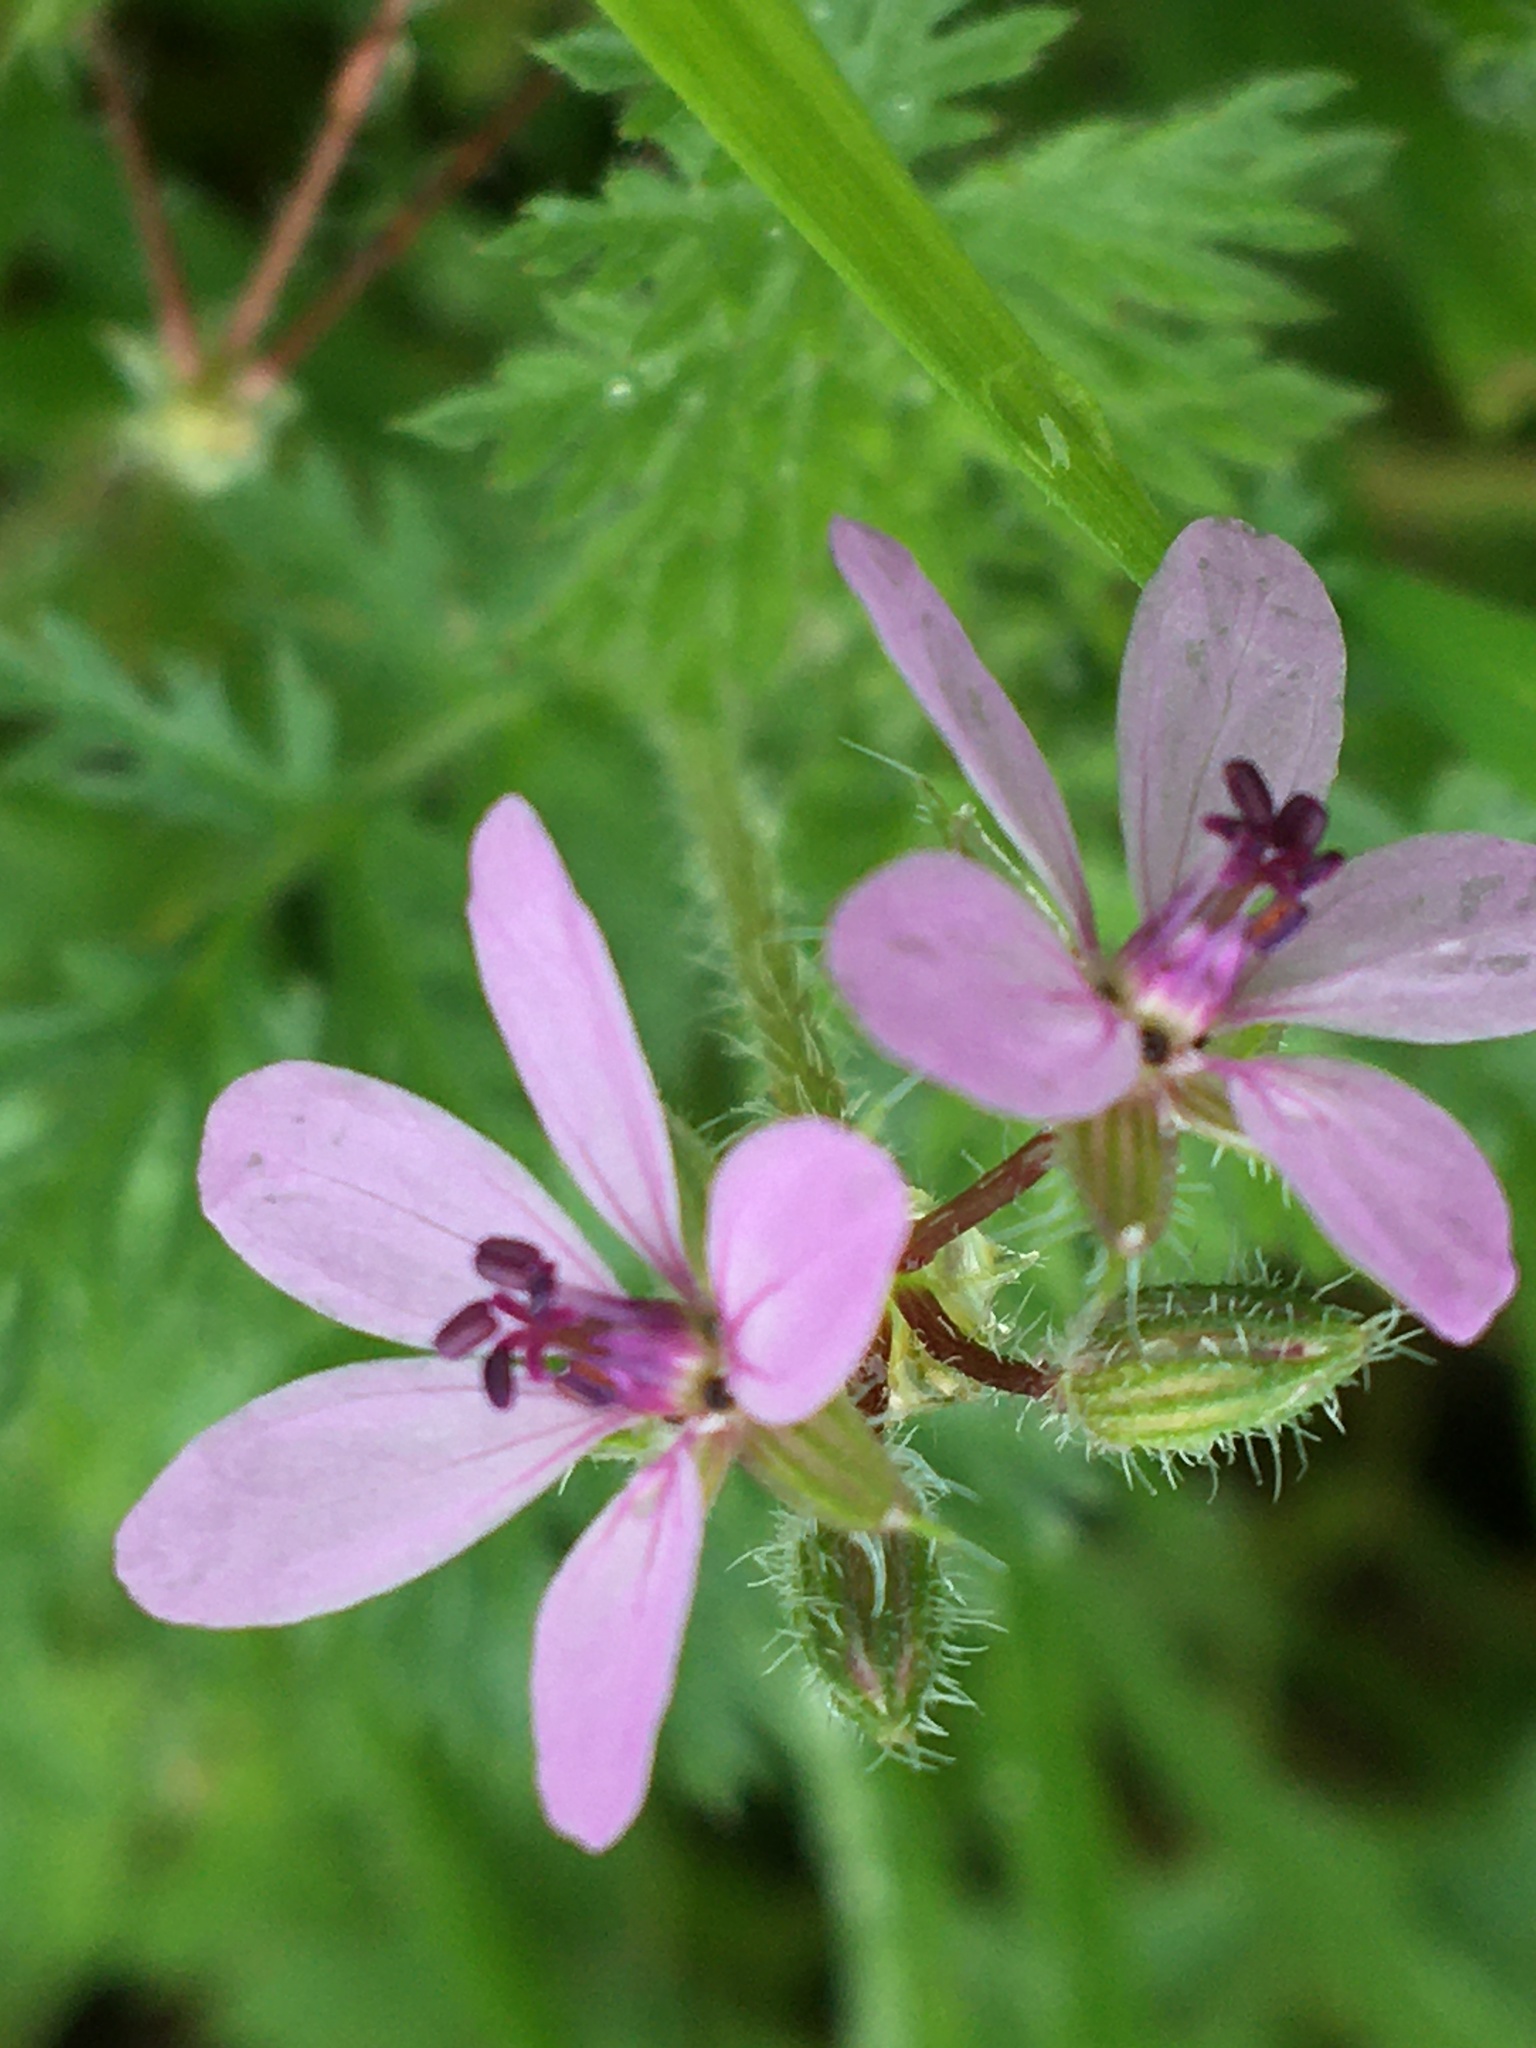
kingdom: Plantae
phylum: Tracheophyta
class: Magnoliopsida
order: Geraniales
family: Geraniaceae
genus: Erodium
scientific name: Erodium cicutarium
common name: Common stork's-bill
